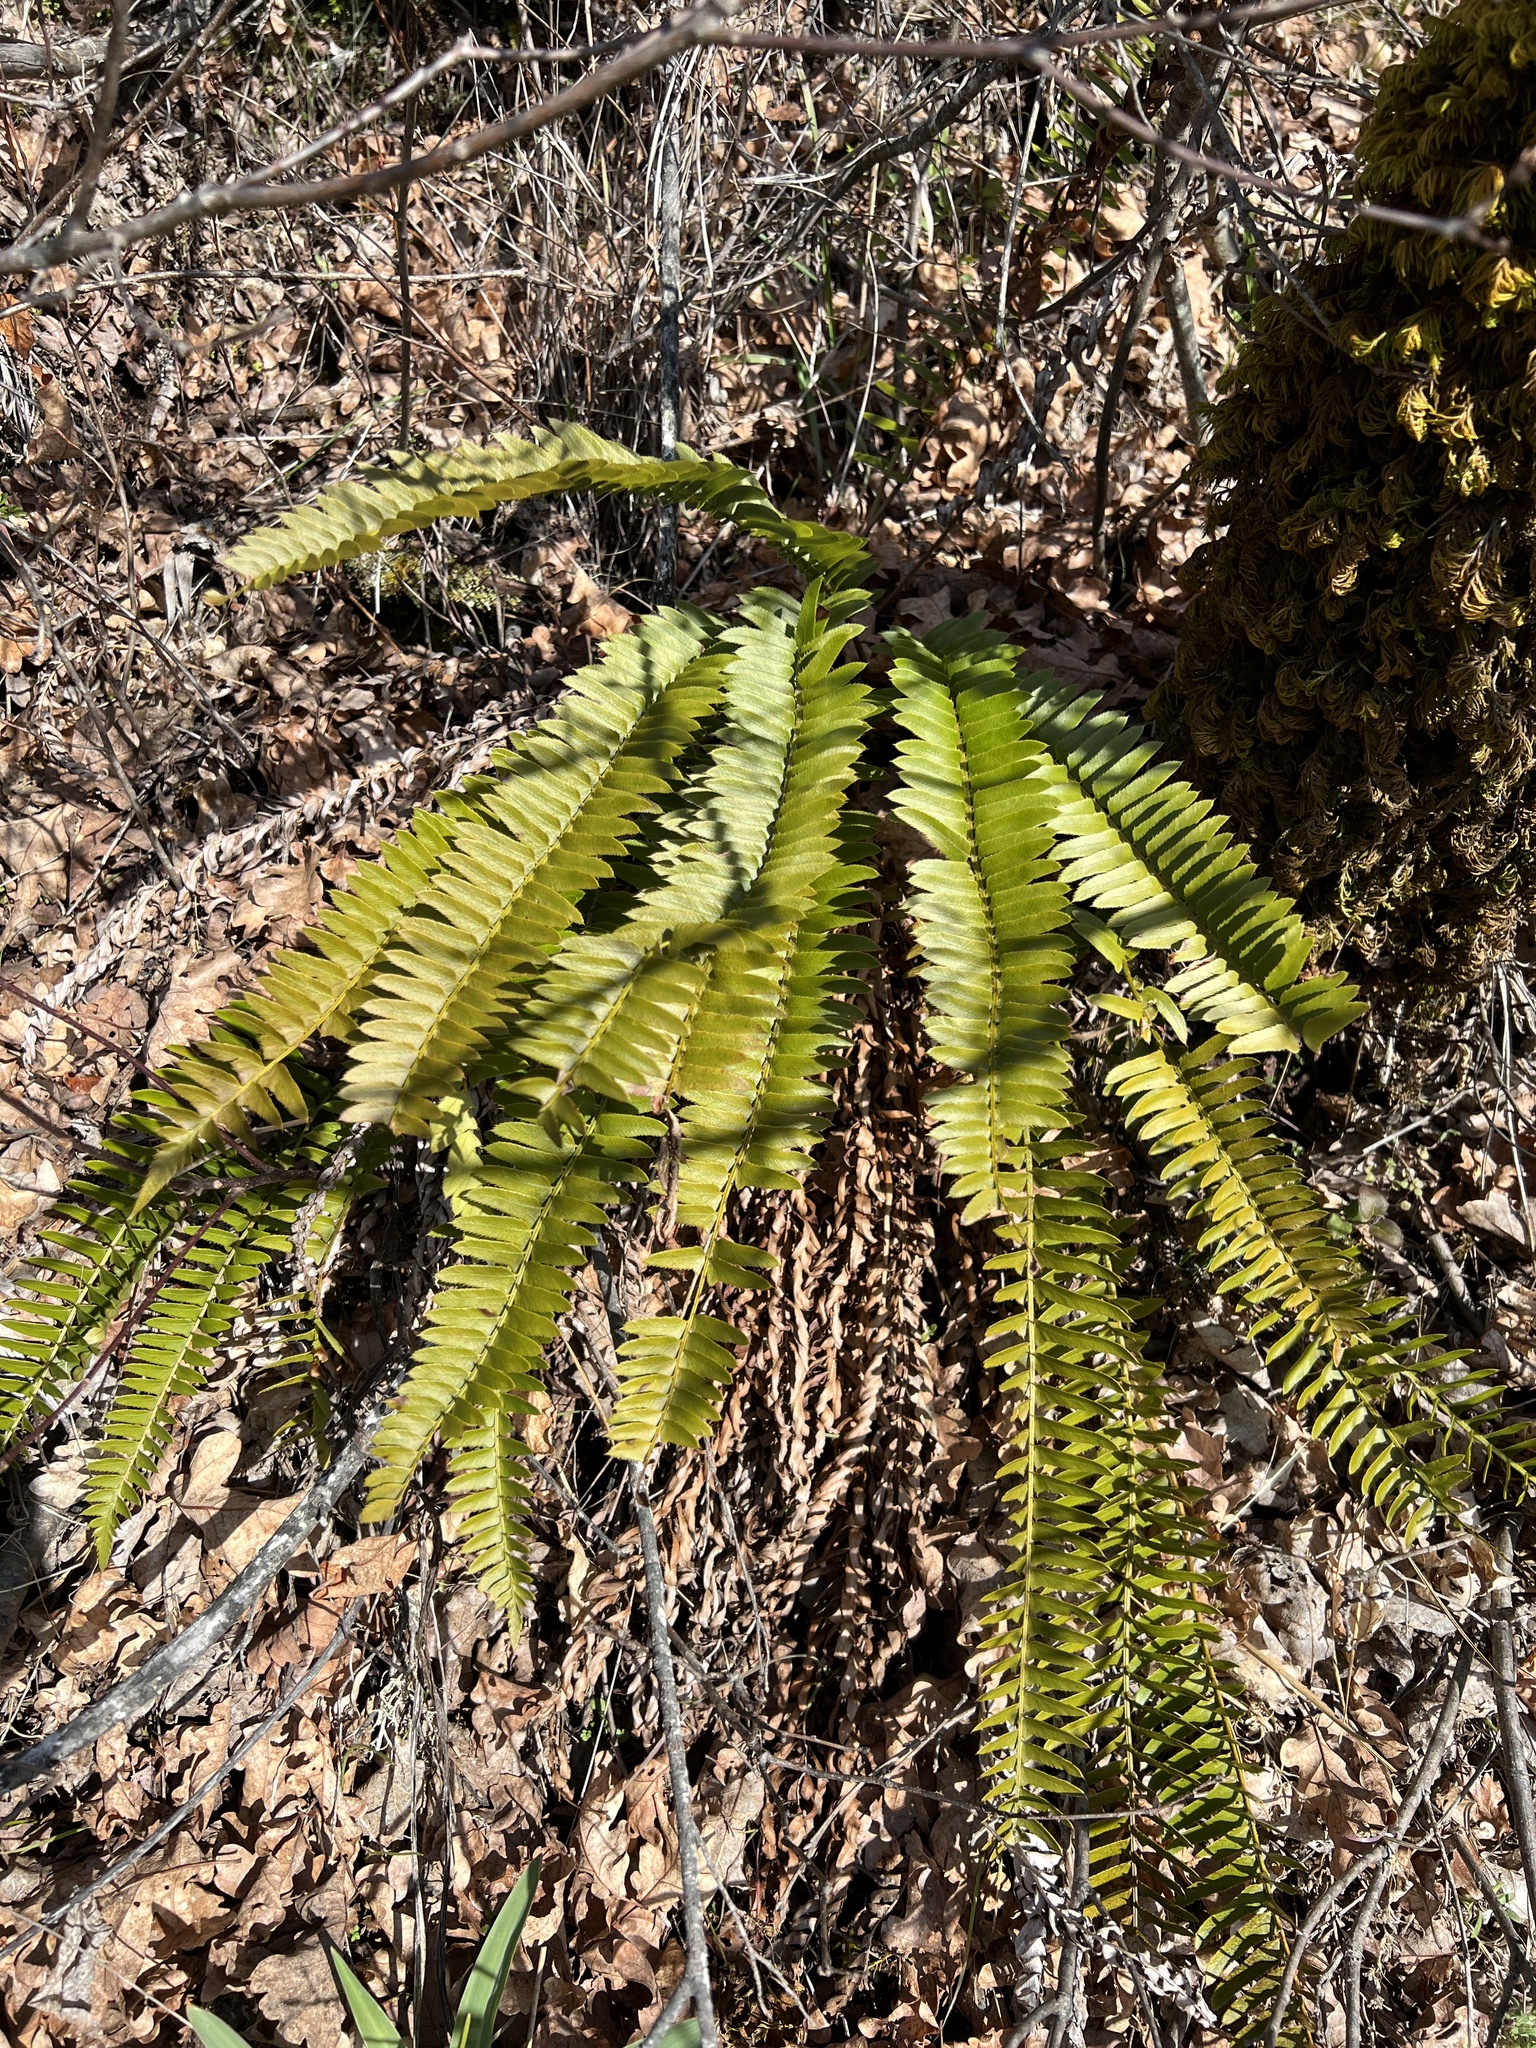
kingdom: Plantae
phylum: Tracheophyta
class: Polypodiopsida
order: Polypodiales
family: Dryopteridaceae
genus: Polystichum
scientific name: Polystichum imbricans
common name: Dwarf western sword fern
